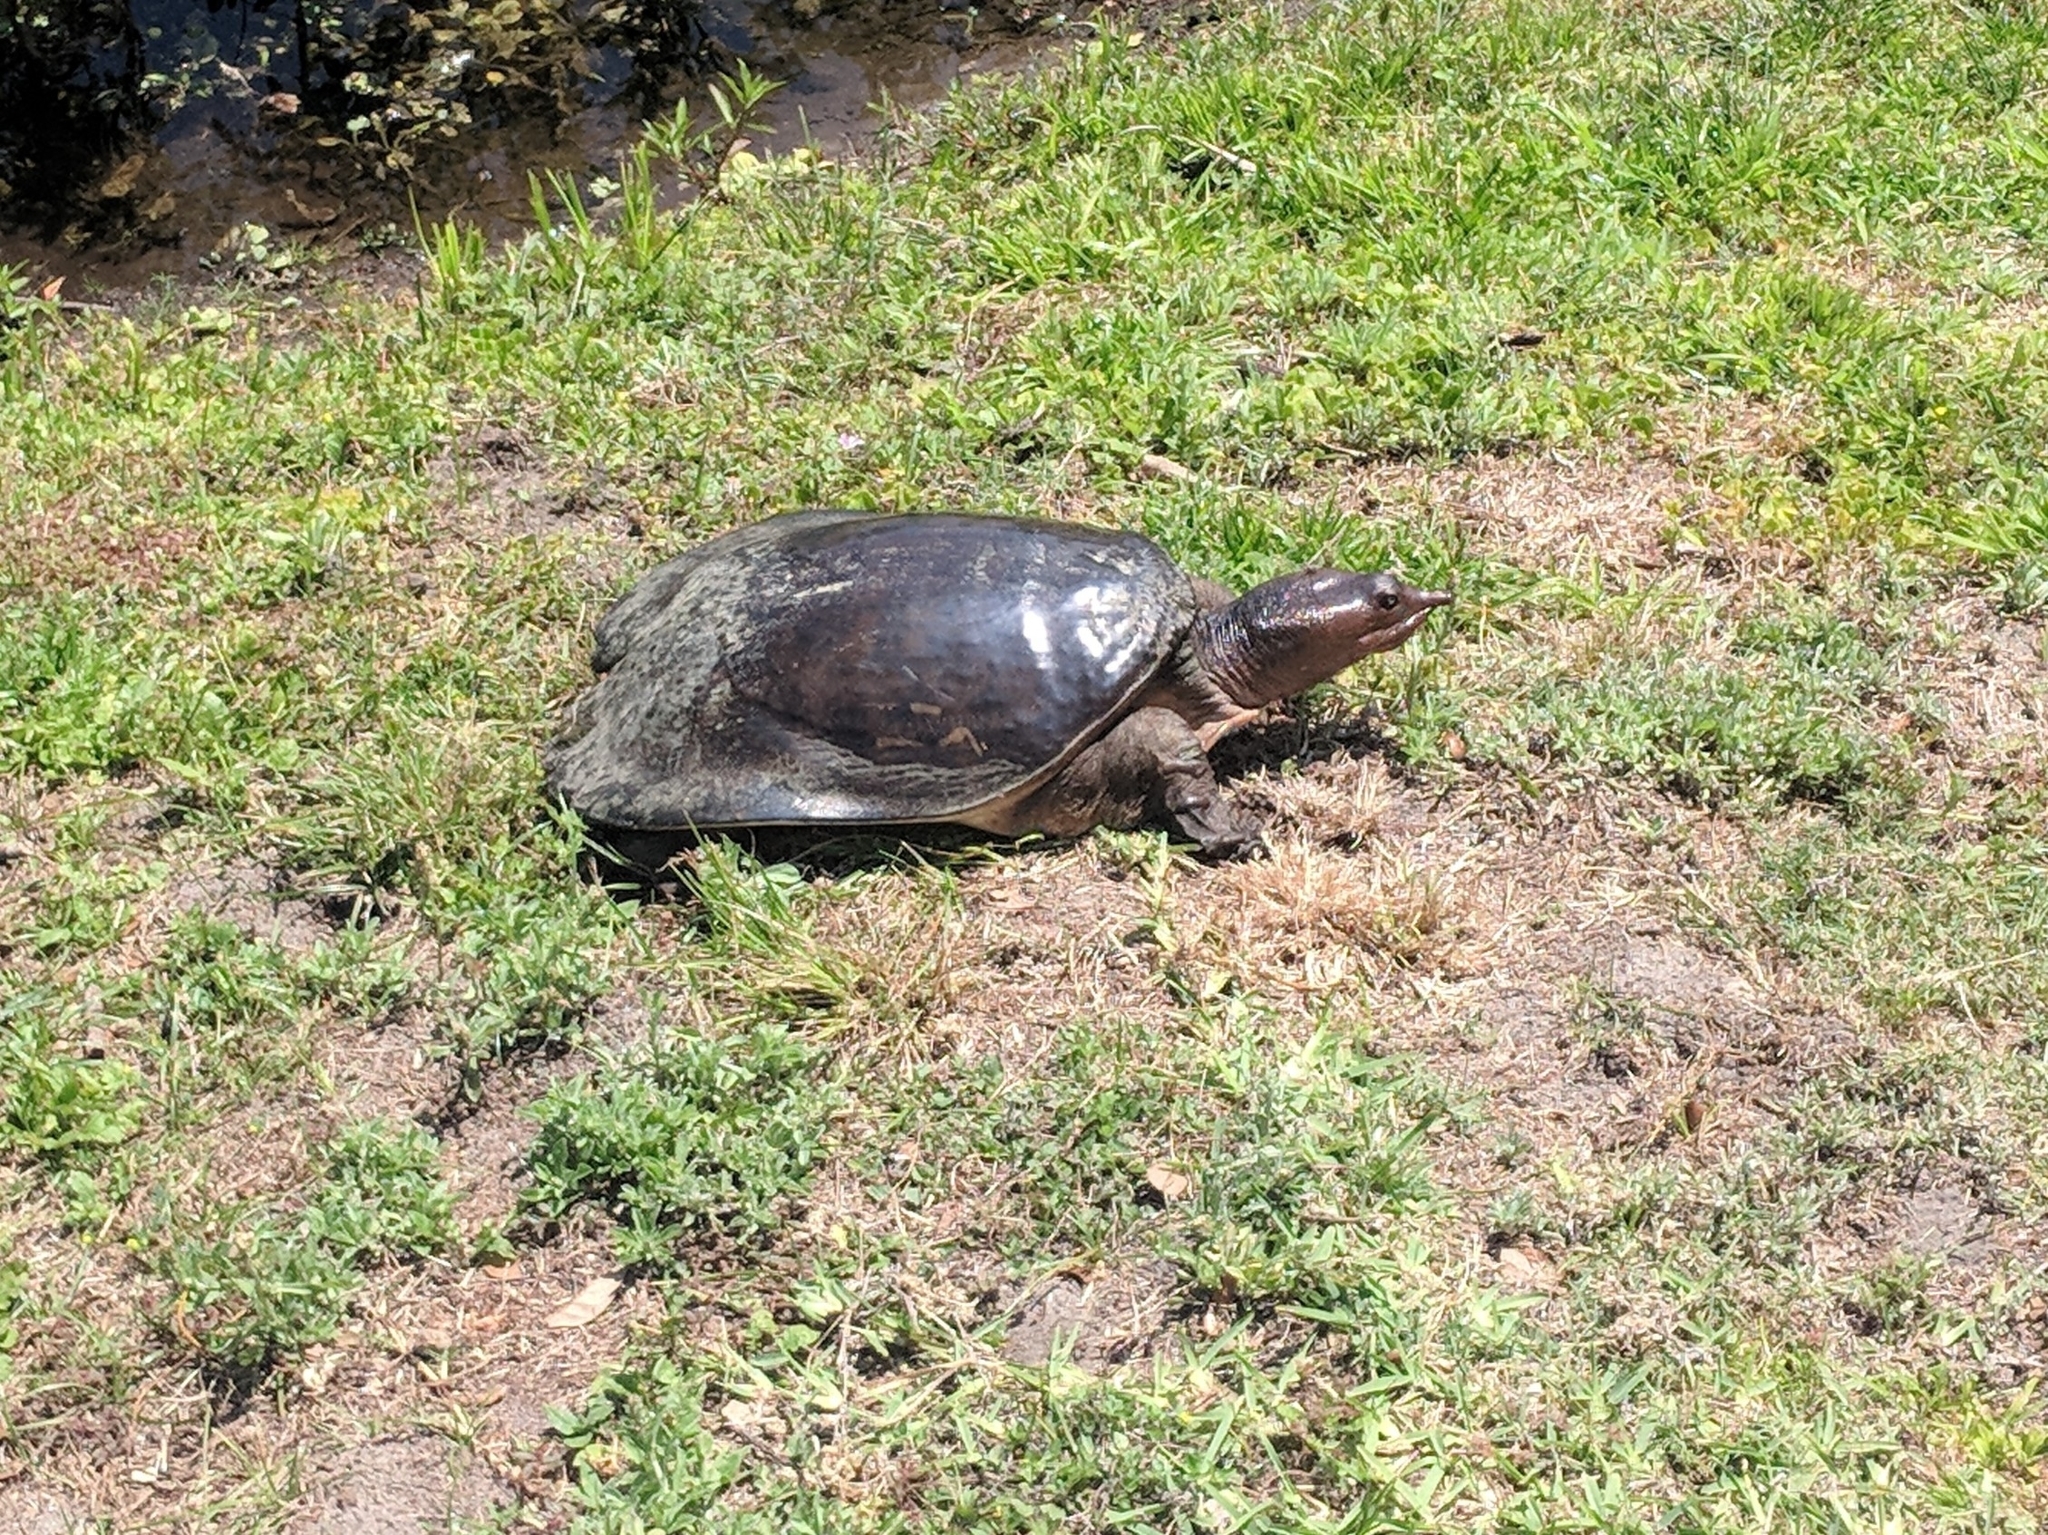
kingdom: Animalia
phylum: Chordata
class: Testudines
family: Trionychidae
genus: Apalone
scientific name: Apalone ferox
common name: Florida softshell turtle
